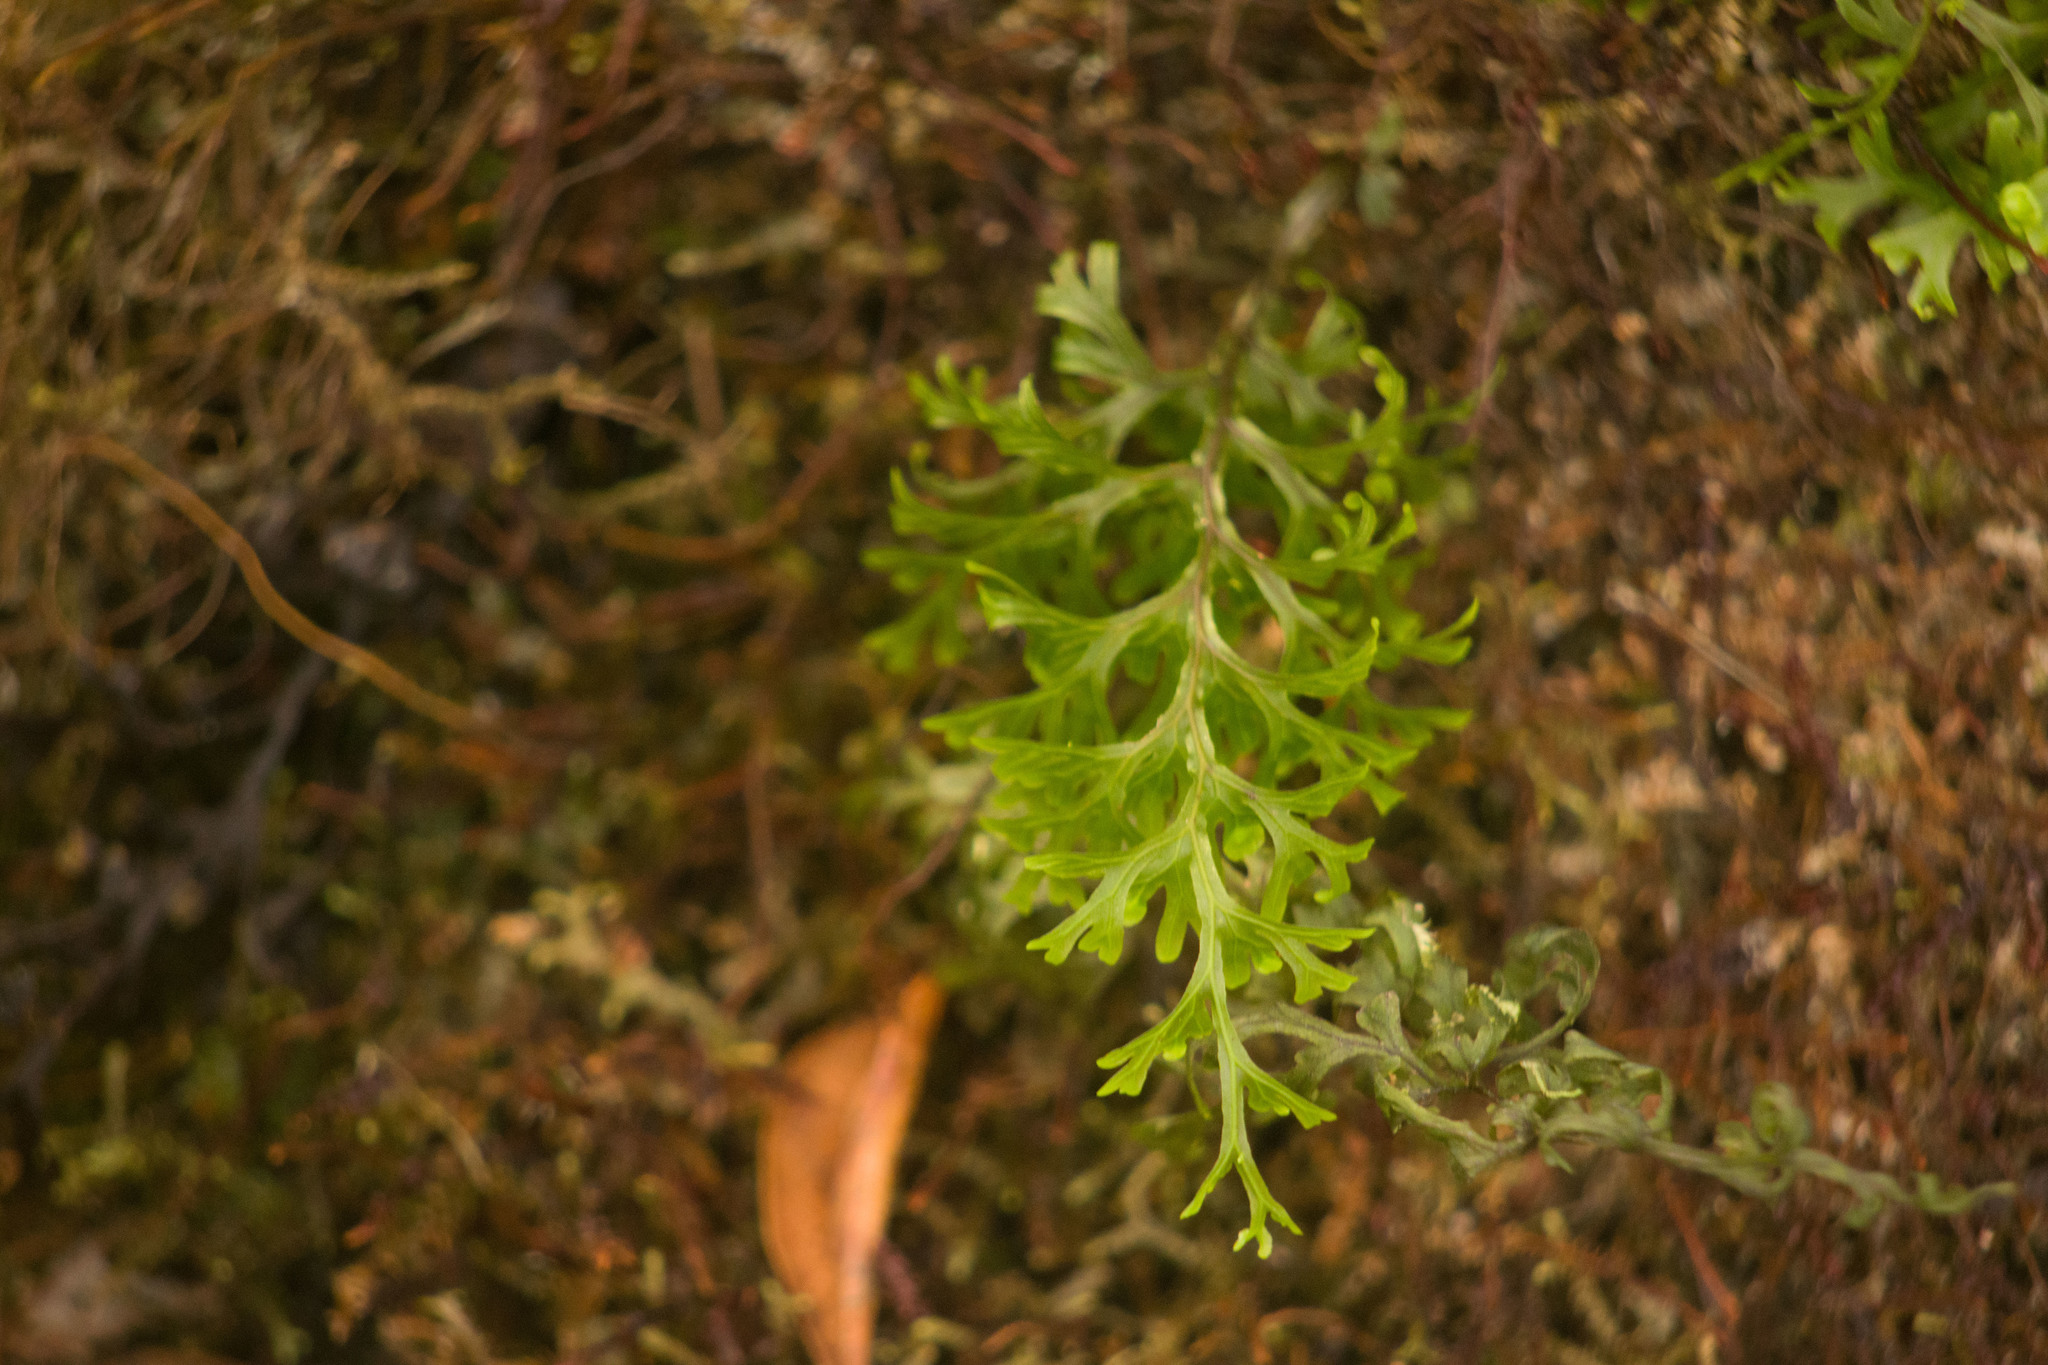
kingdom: Plantae
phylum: Tracheophyta
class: Polypodiopsida
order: Hymenophyllales
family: Hymenophyllaceae
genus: Hymenophyllum
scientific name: Hymenophyllum recurvum
